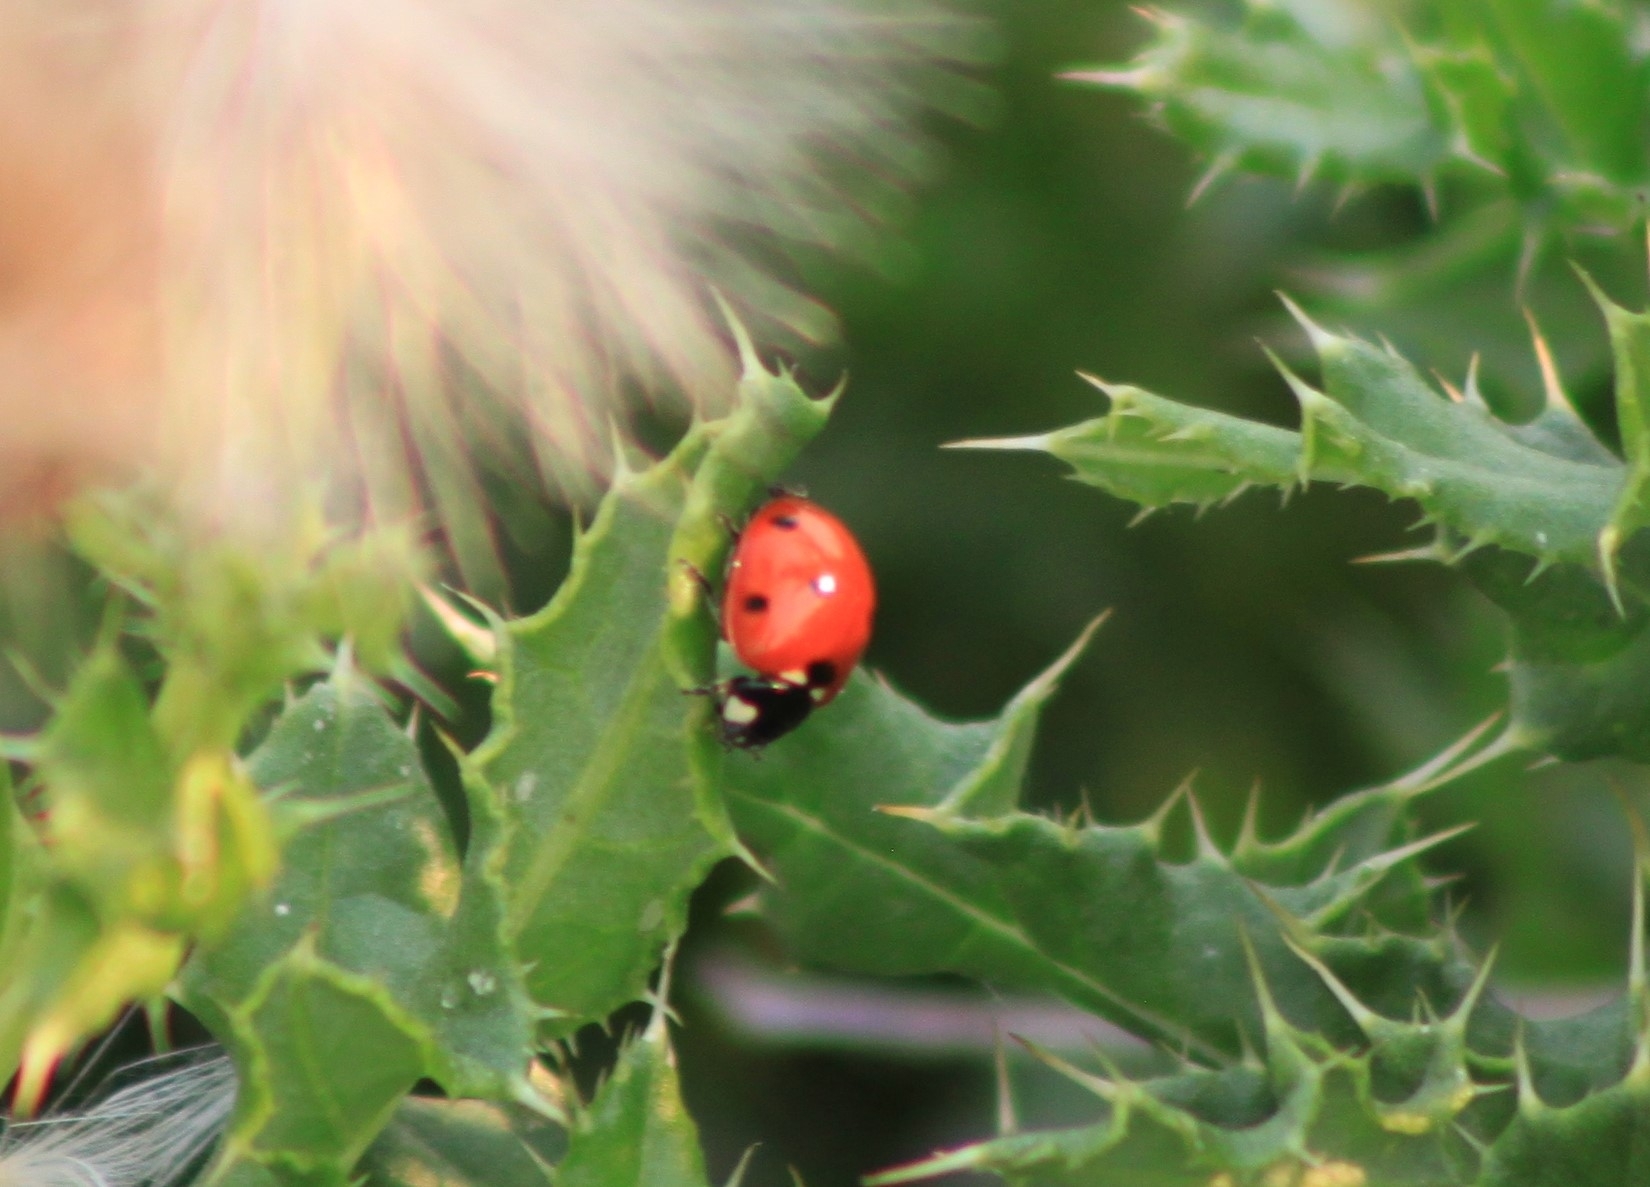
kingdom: Animalia
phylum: Arthropoda
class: Insecta
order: Coleoptera
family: Coccinellidae
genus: Coccinella
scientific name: Coccinella septempunctata
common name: Sevenspotted lady beetle
